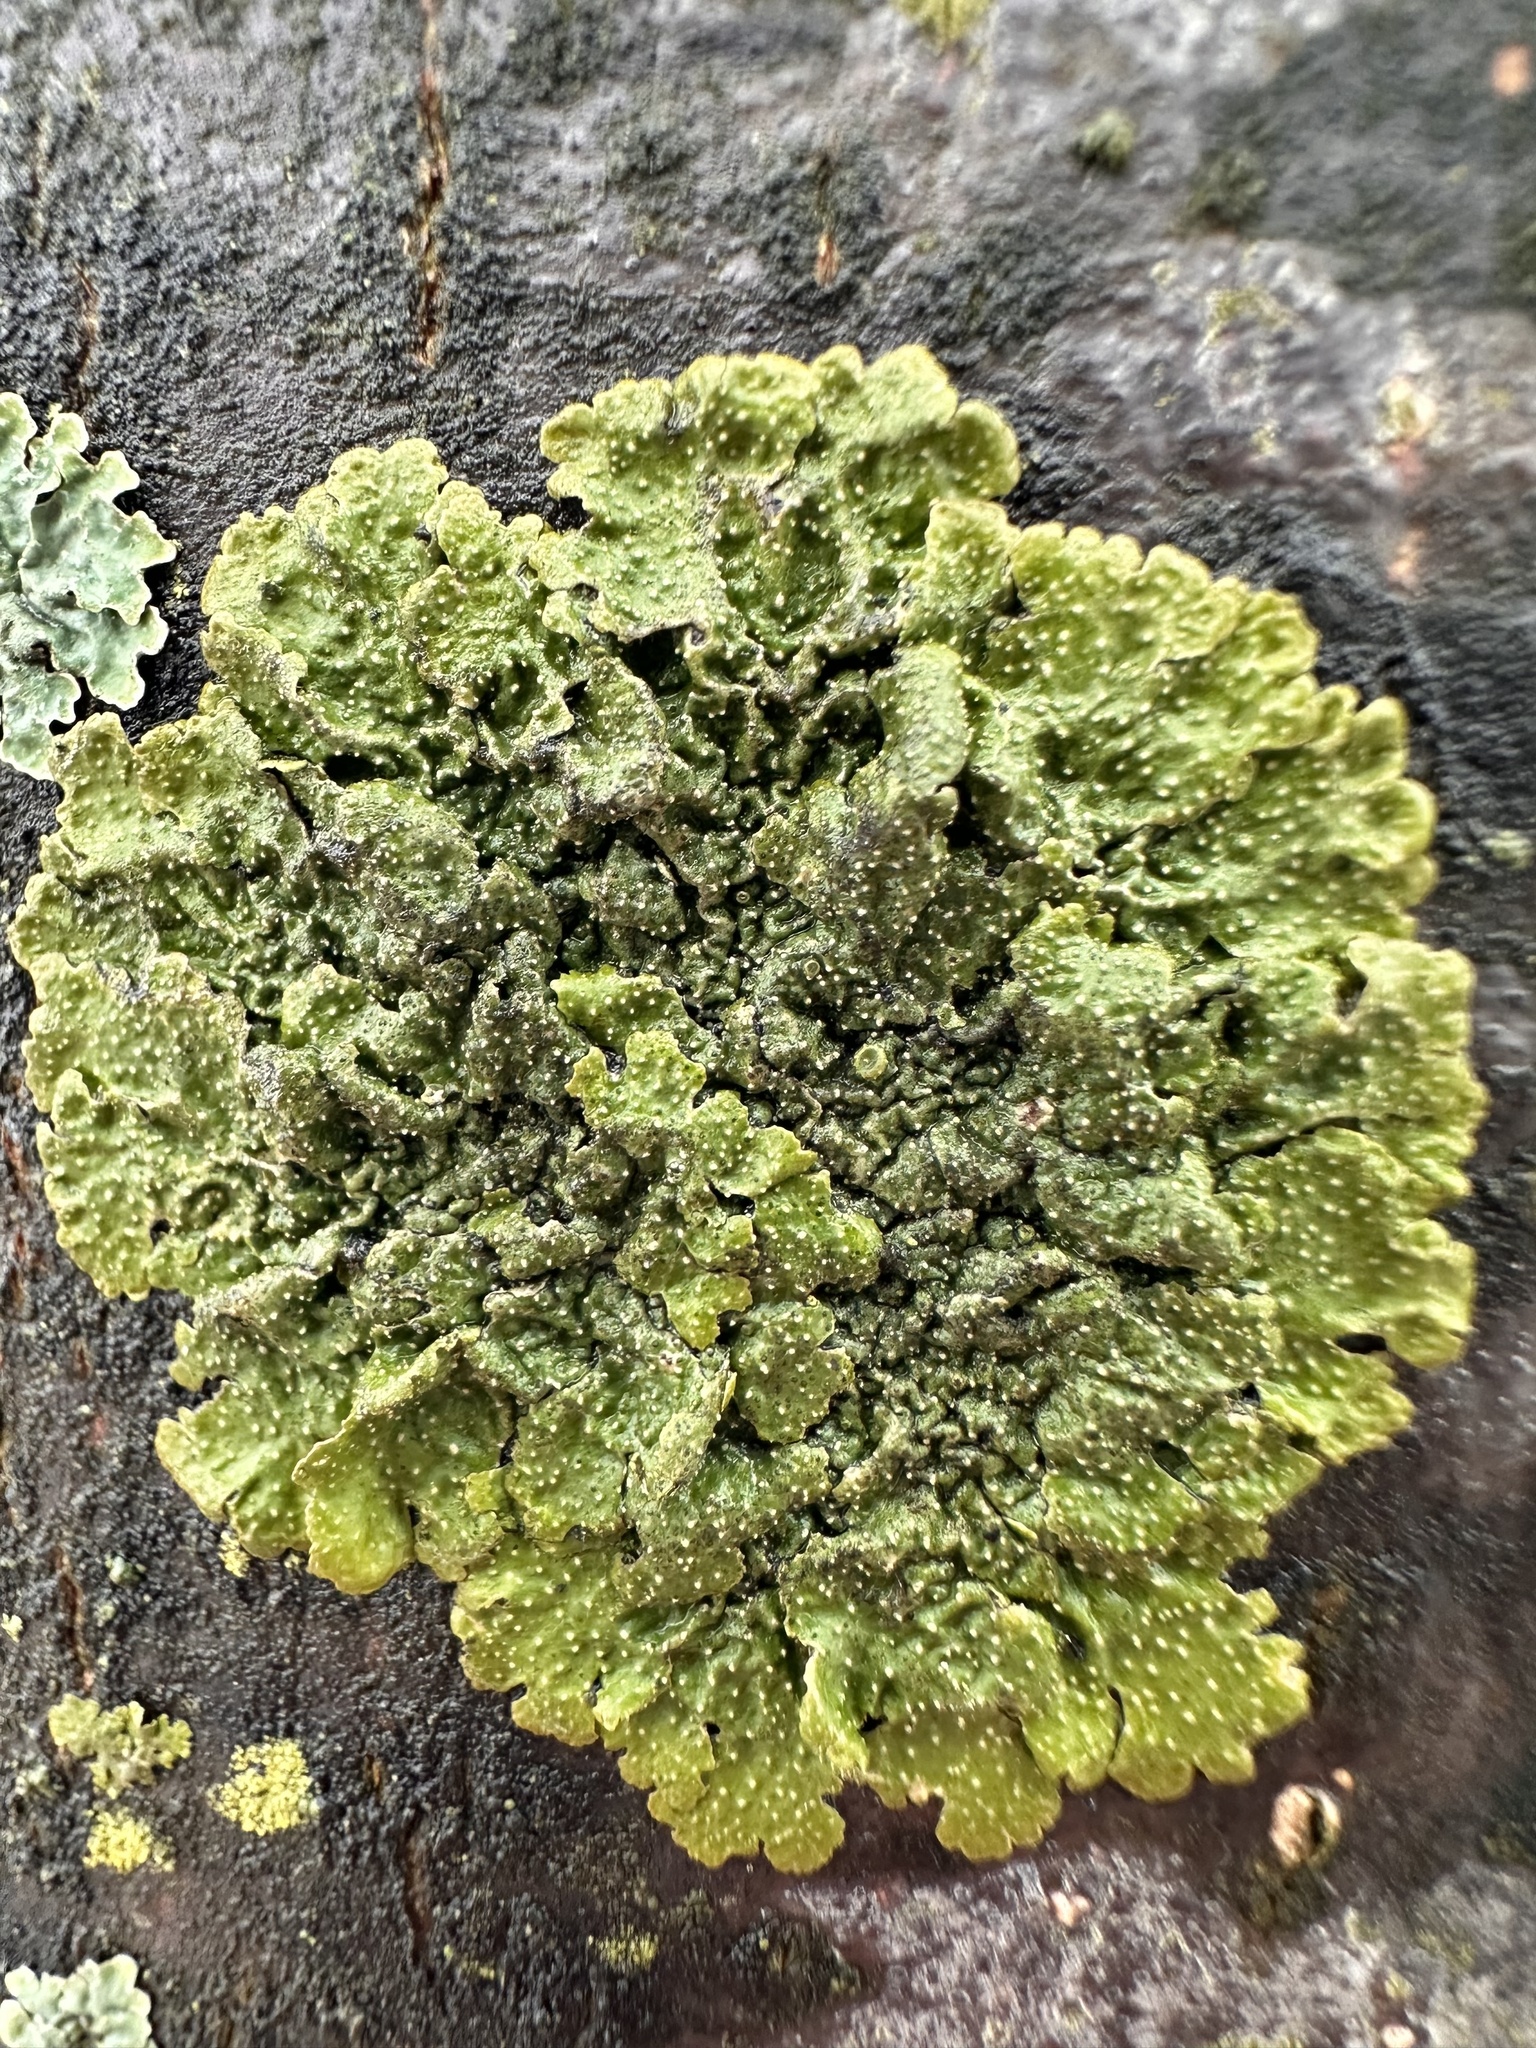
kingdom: Fungi
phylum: Ascomycota
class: Lecanoromycetes
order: Lecanorales
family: Parmeliaceae
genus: Melanohalea
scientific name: Melanohalea exasperata
